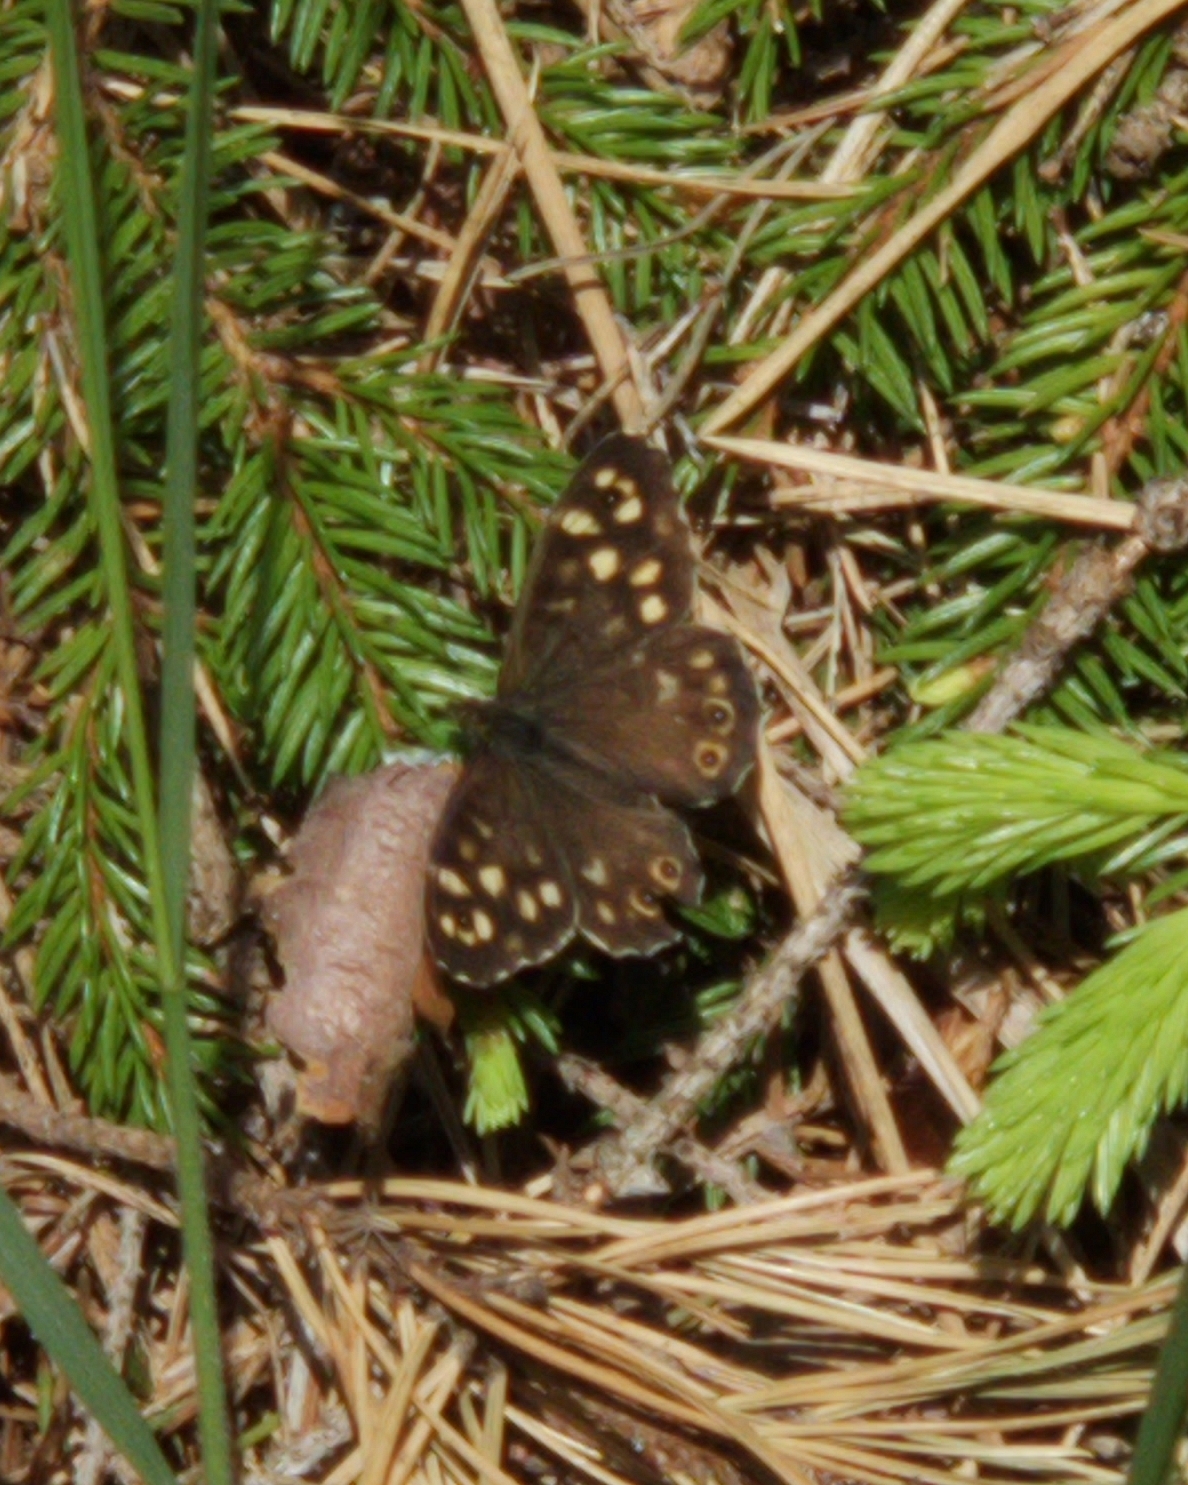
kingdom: Animalia
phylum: Arthropoda
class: Insecta
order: Lepidoptera
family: Nymphalidae
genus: Pararge
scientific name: Pararge aegeria
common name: Speckled wood
